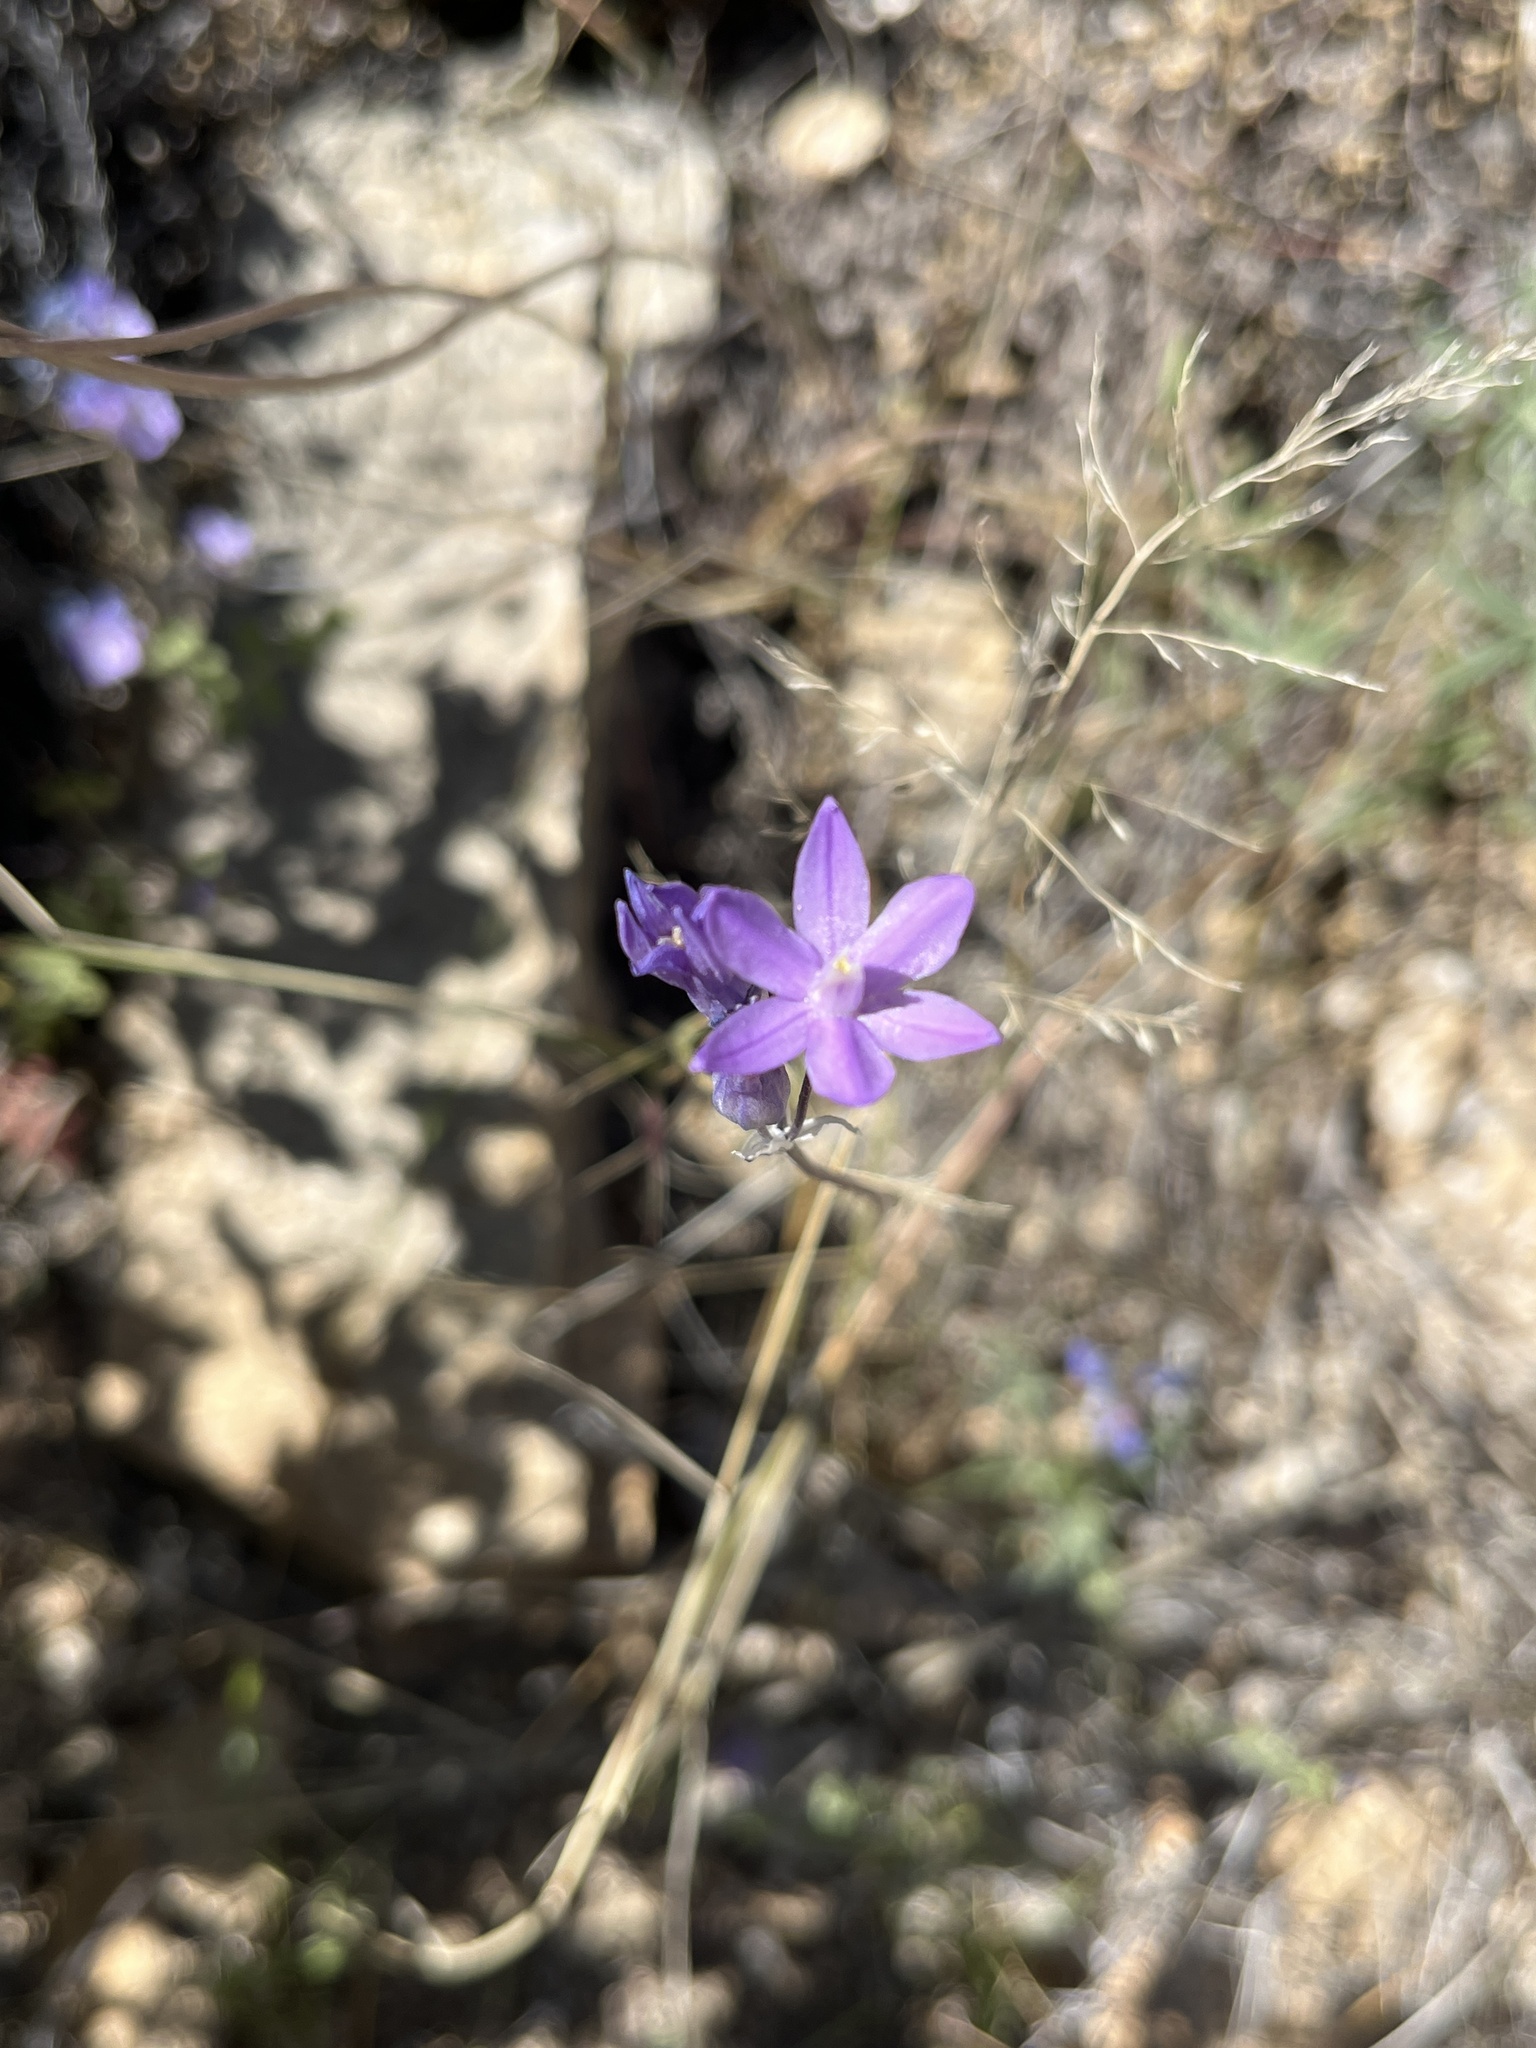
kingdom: Plantae
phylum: Tracheophyta
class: Liliopsida
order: Asparagales
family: Asparagaceae
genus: Dipterostemon
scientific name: Dipterostemon capitatus
